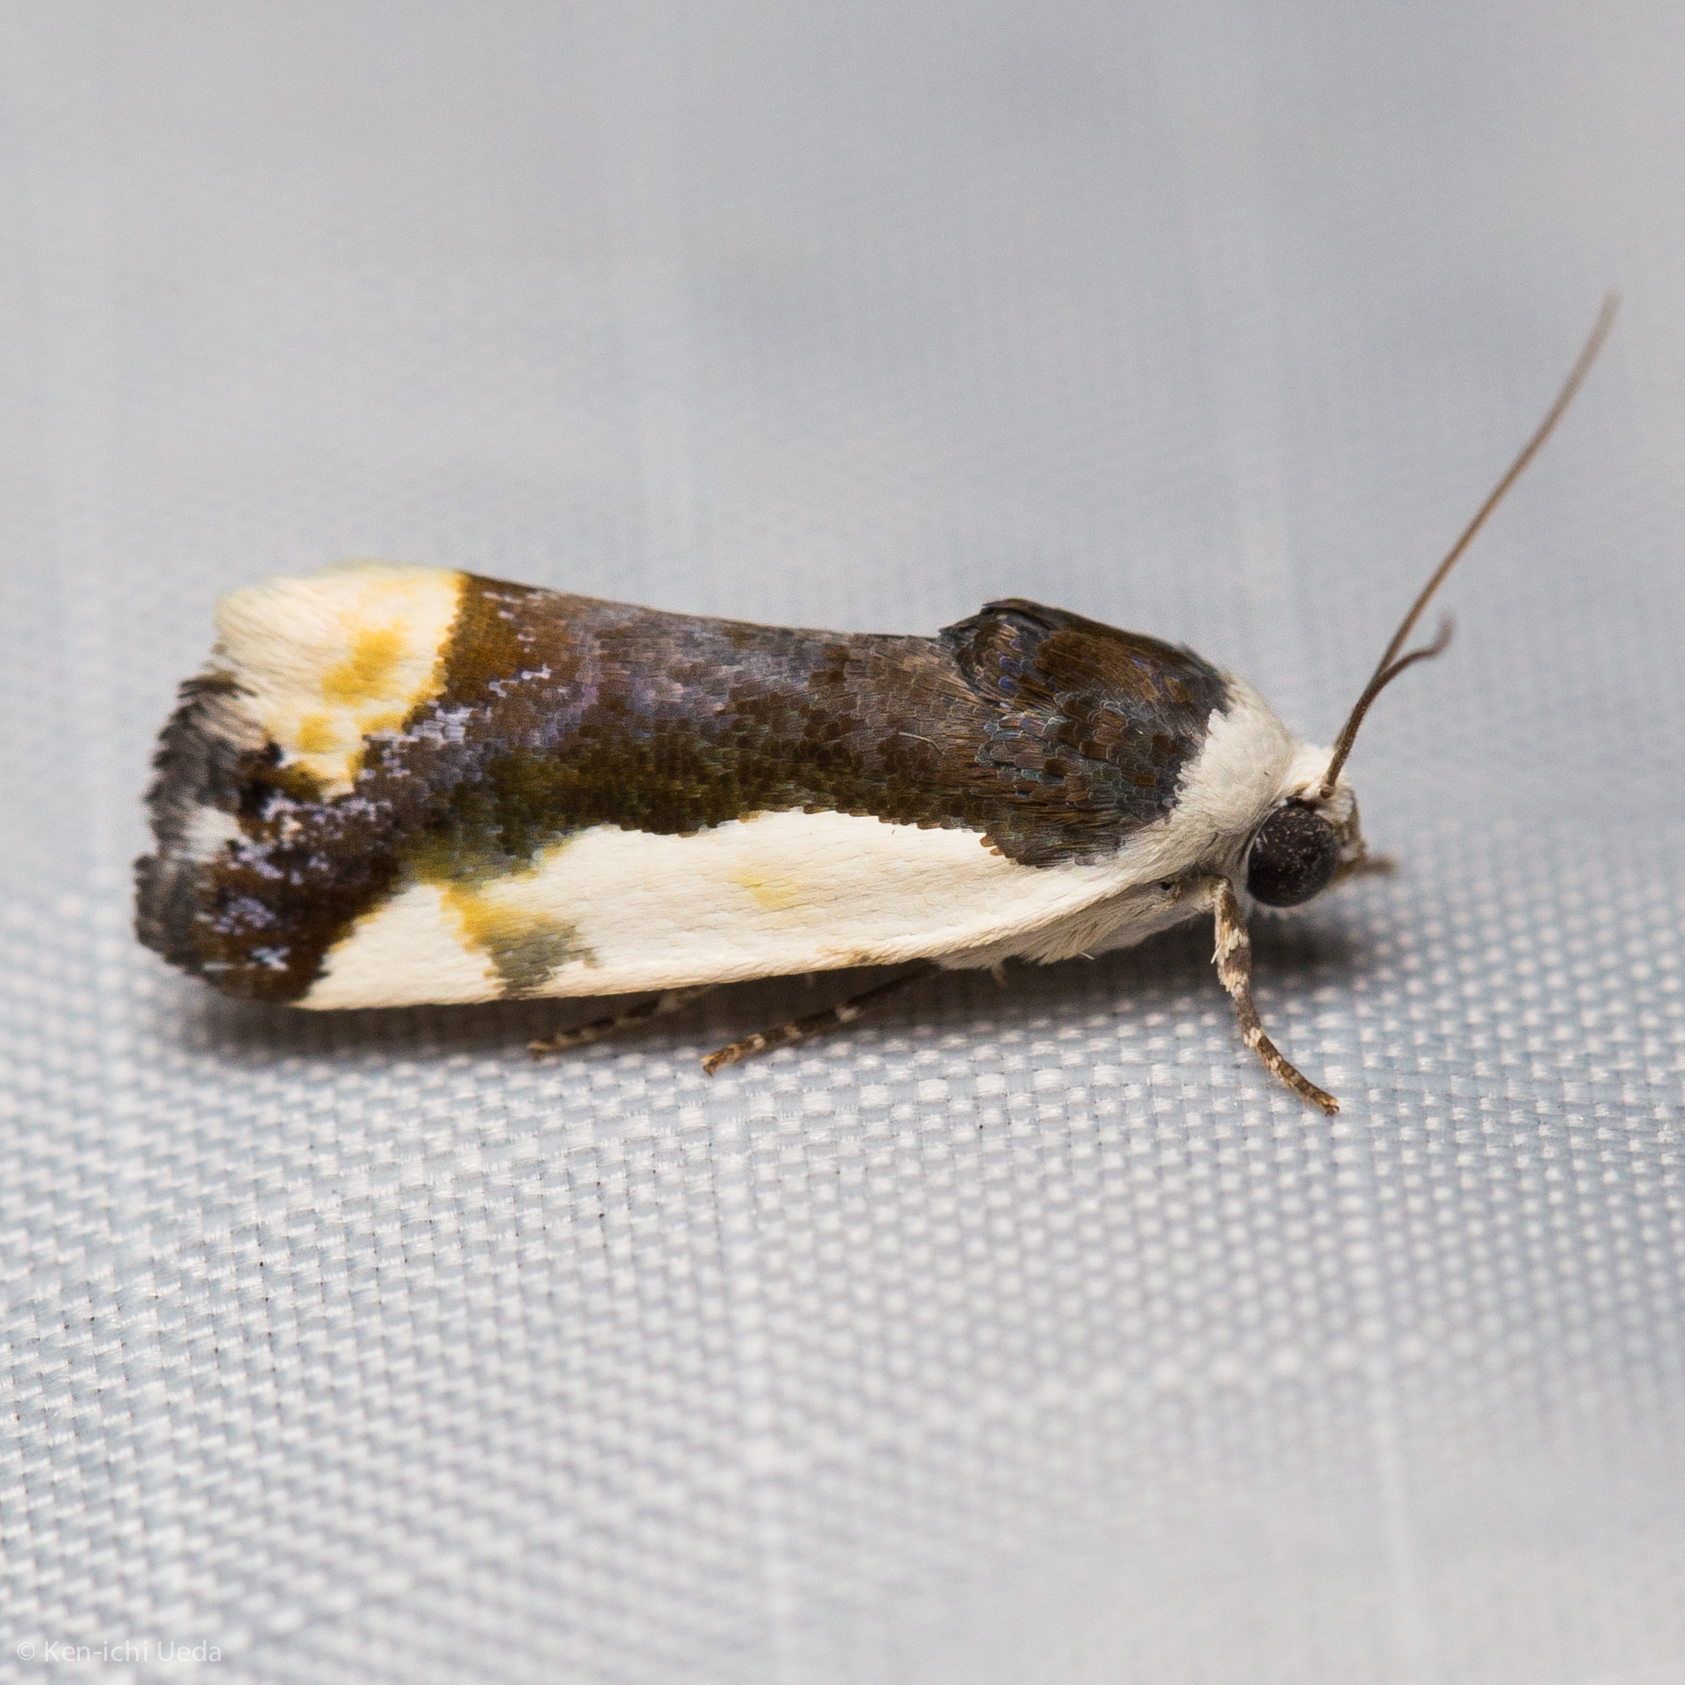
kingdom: Animalia
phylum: Arthropoda
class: Insecta
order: Lepidoptera
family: Noctuidae
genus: Acontia
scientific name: Acontia Tarache expolita
